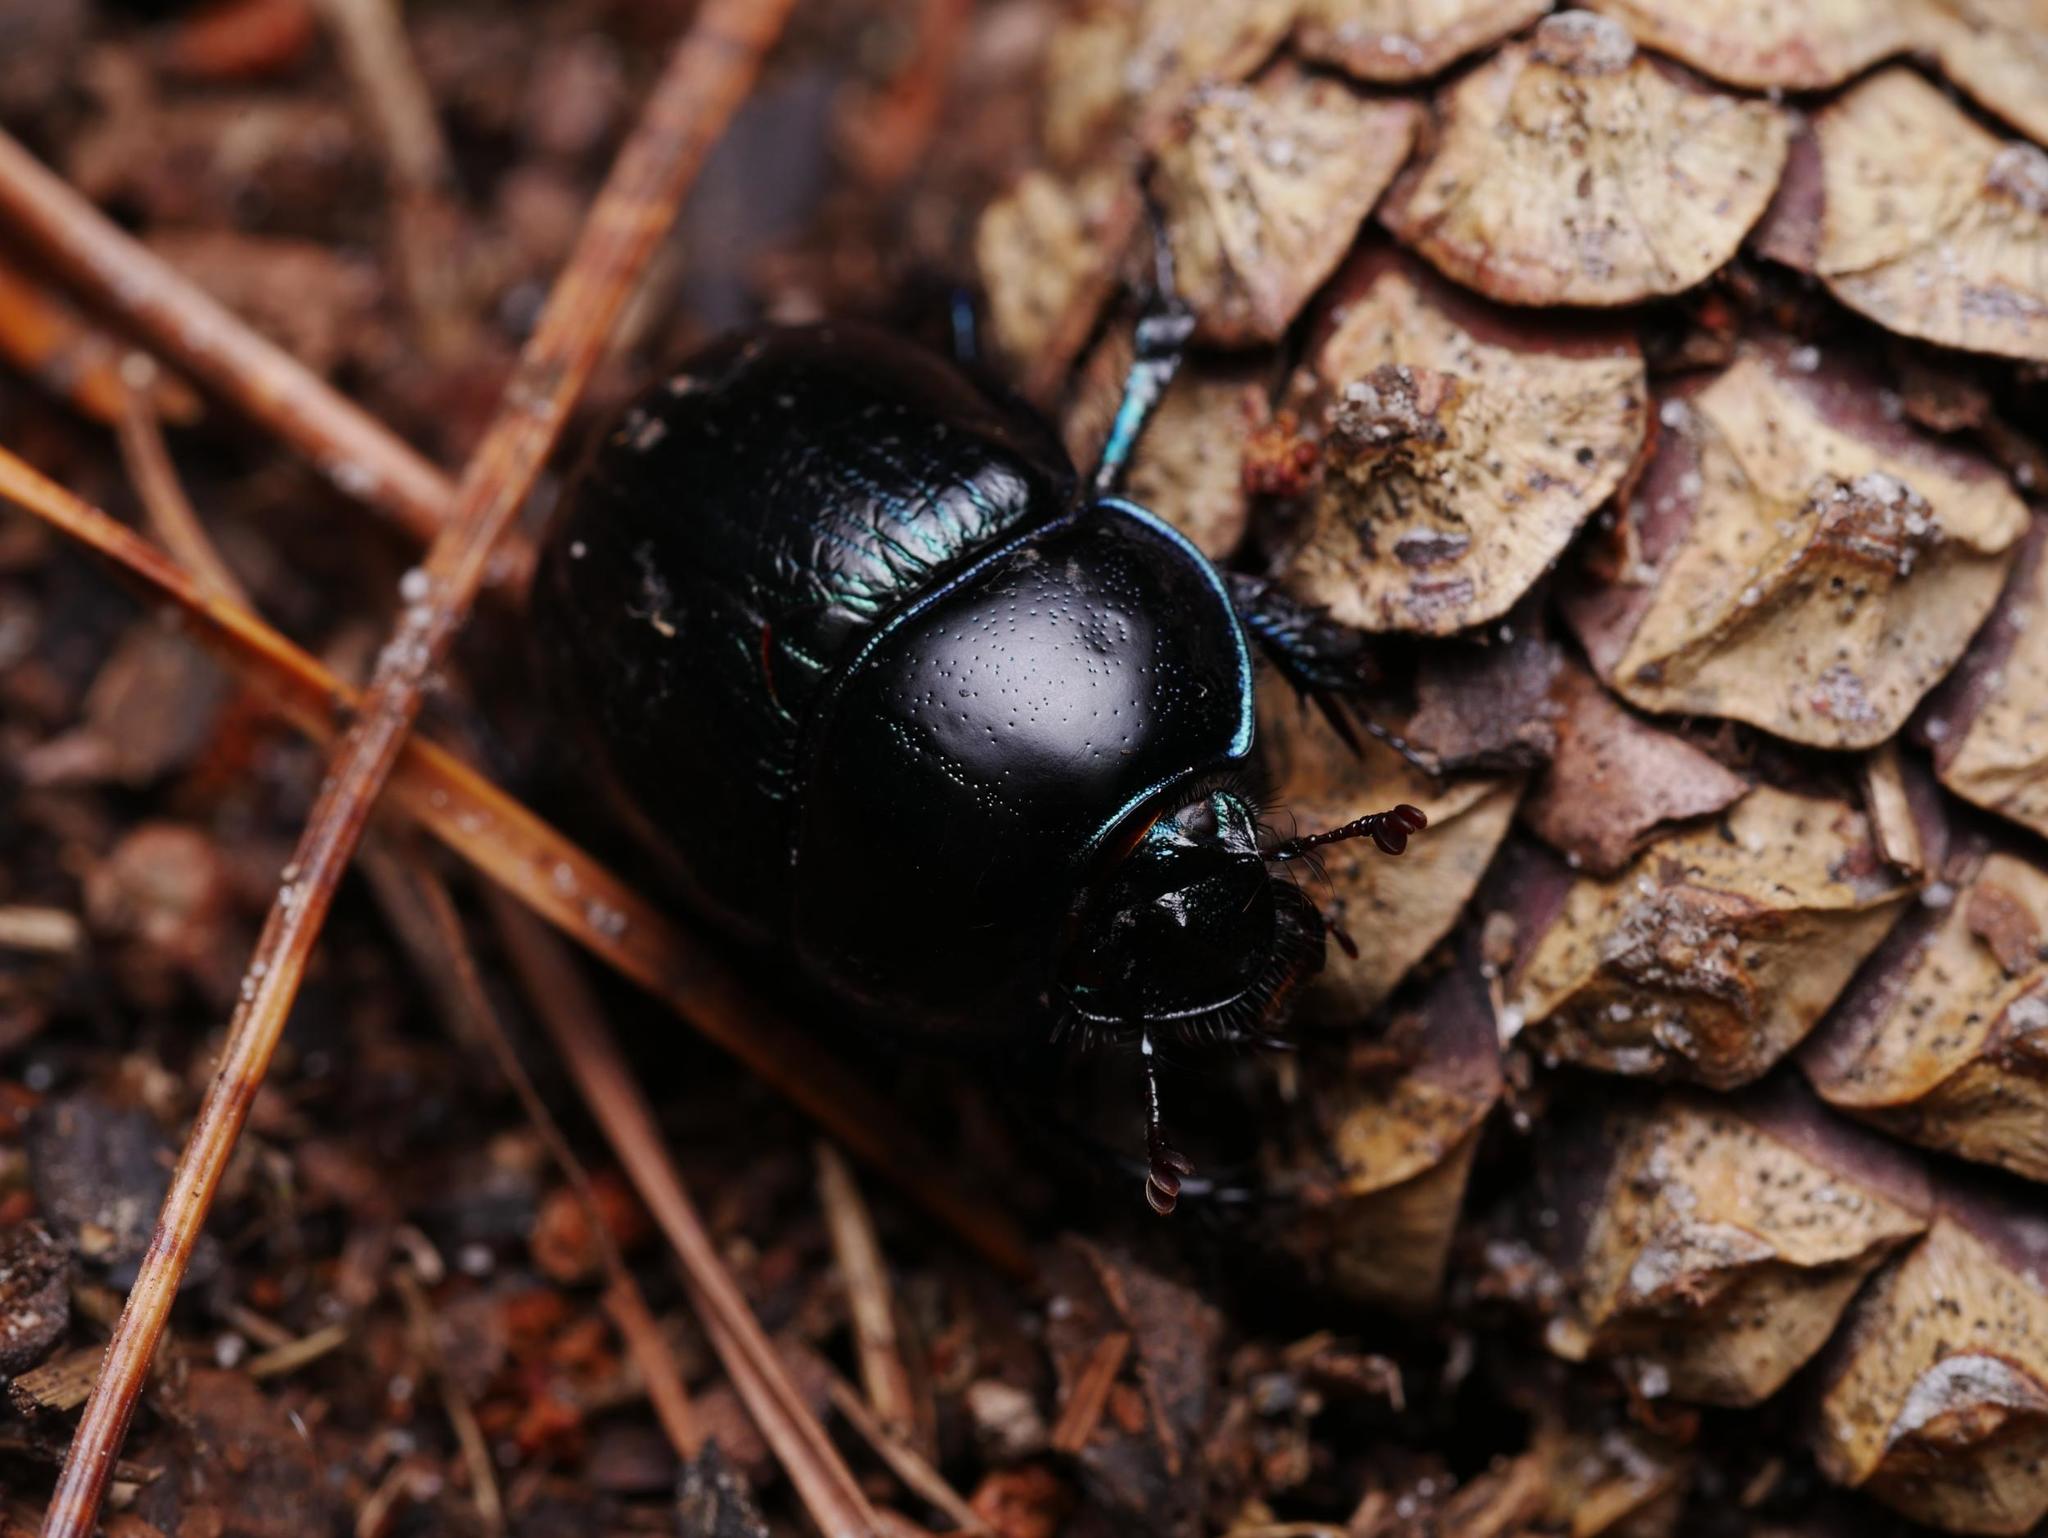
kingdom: Animalia
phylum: Arthropoda
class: Insecta
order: Coleoptera
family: Geotrupidae
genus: Anoplotrupes
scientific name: Anoplotrupes stercorosus
